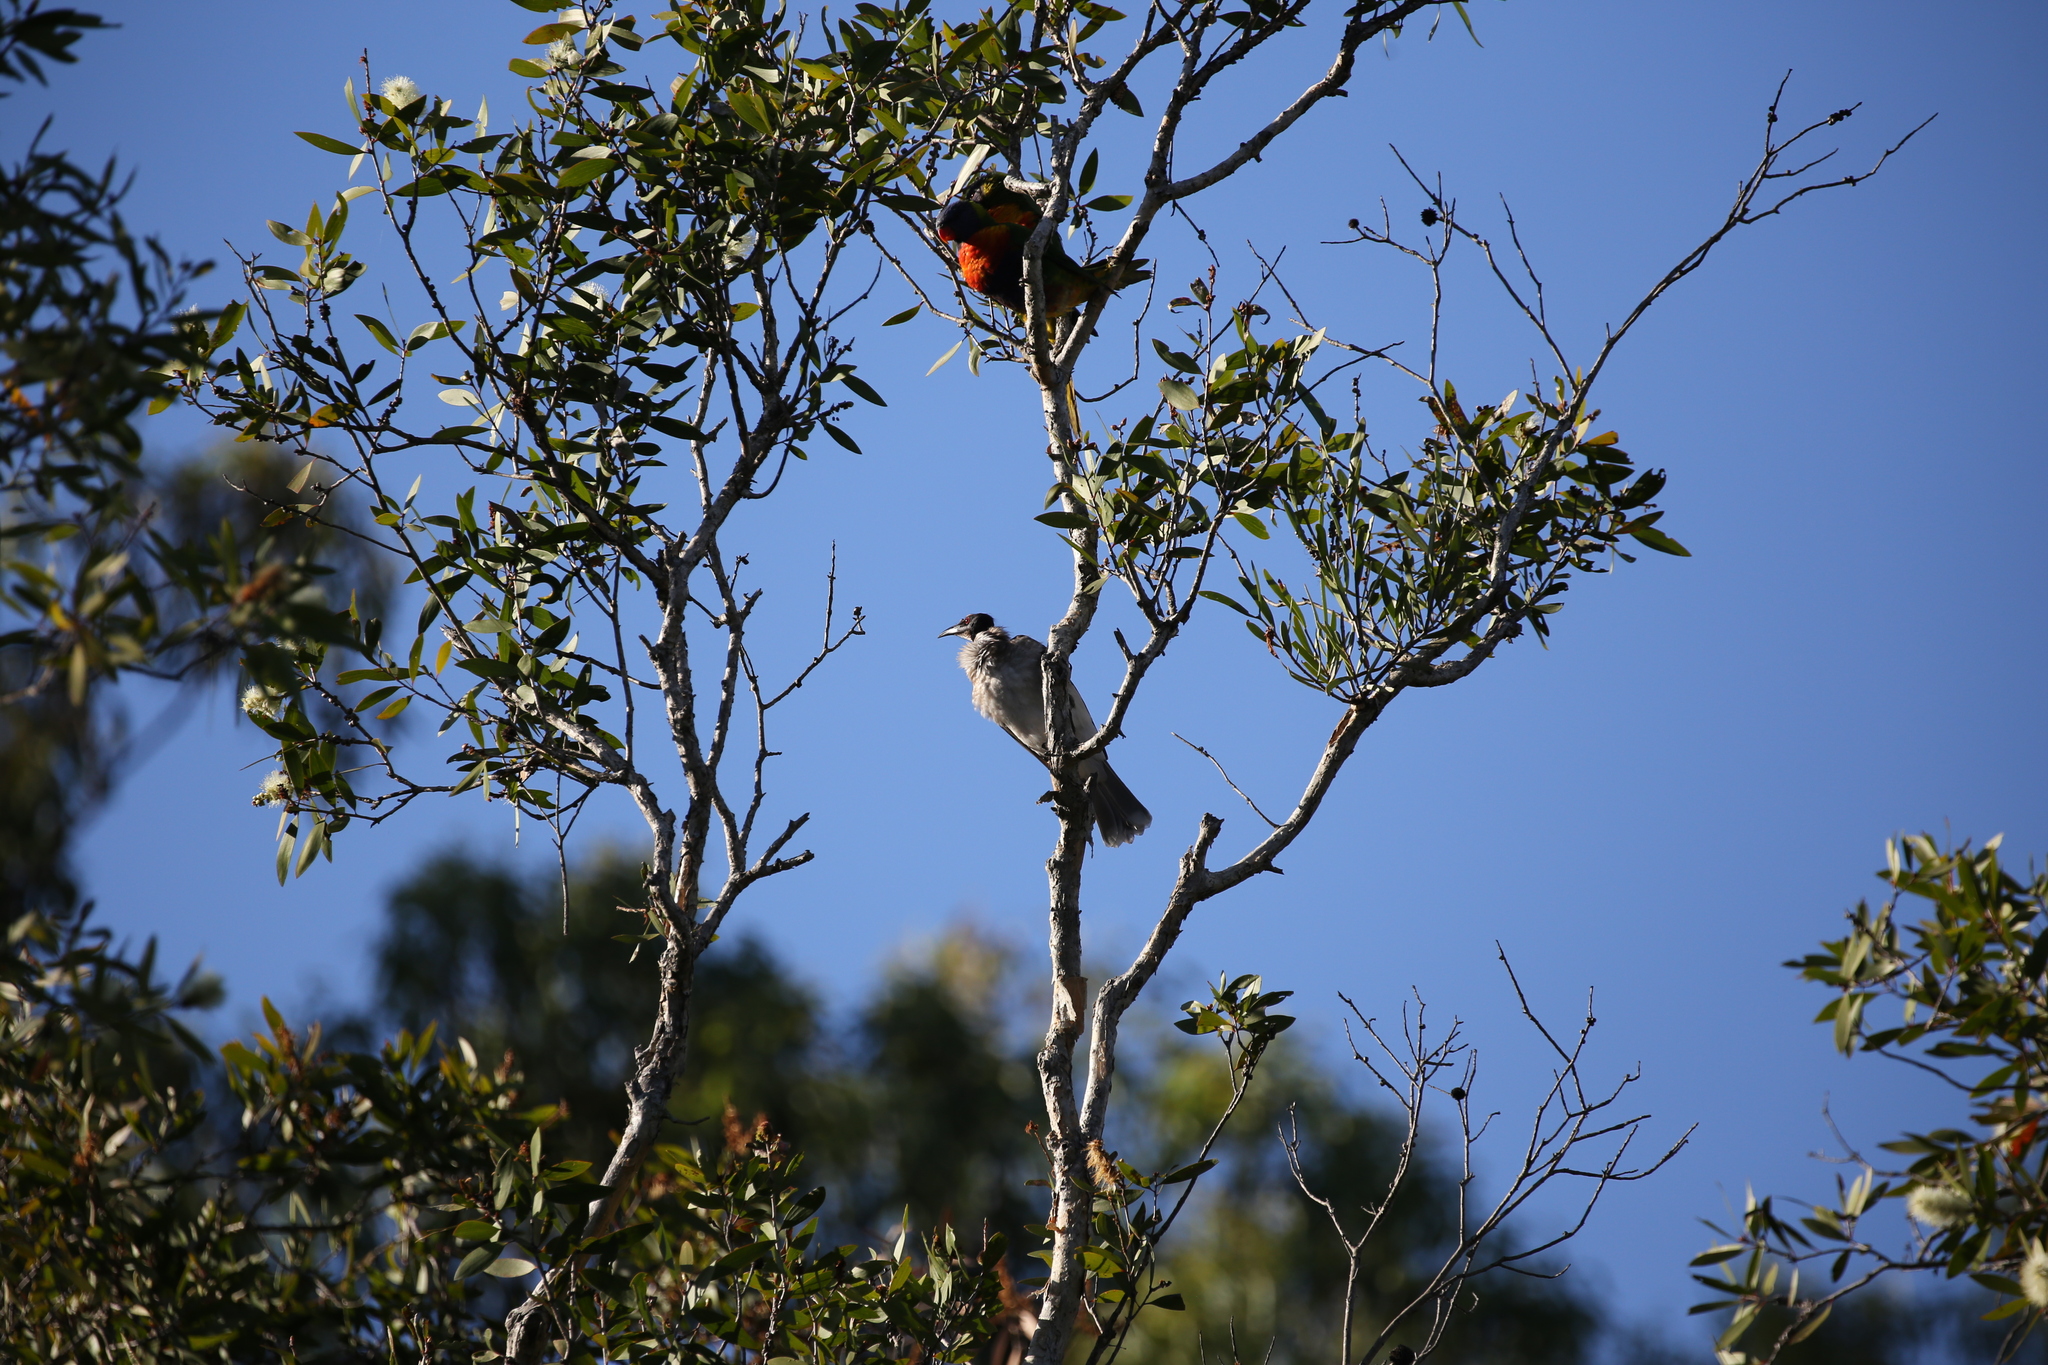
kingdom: Animalia
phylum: Chordata
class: Aves
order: Psittaciformes
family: Psittacidae
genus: Trichoglossus
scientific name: Trichoglossus haematodus
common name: Coconut lorikeet
